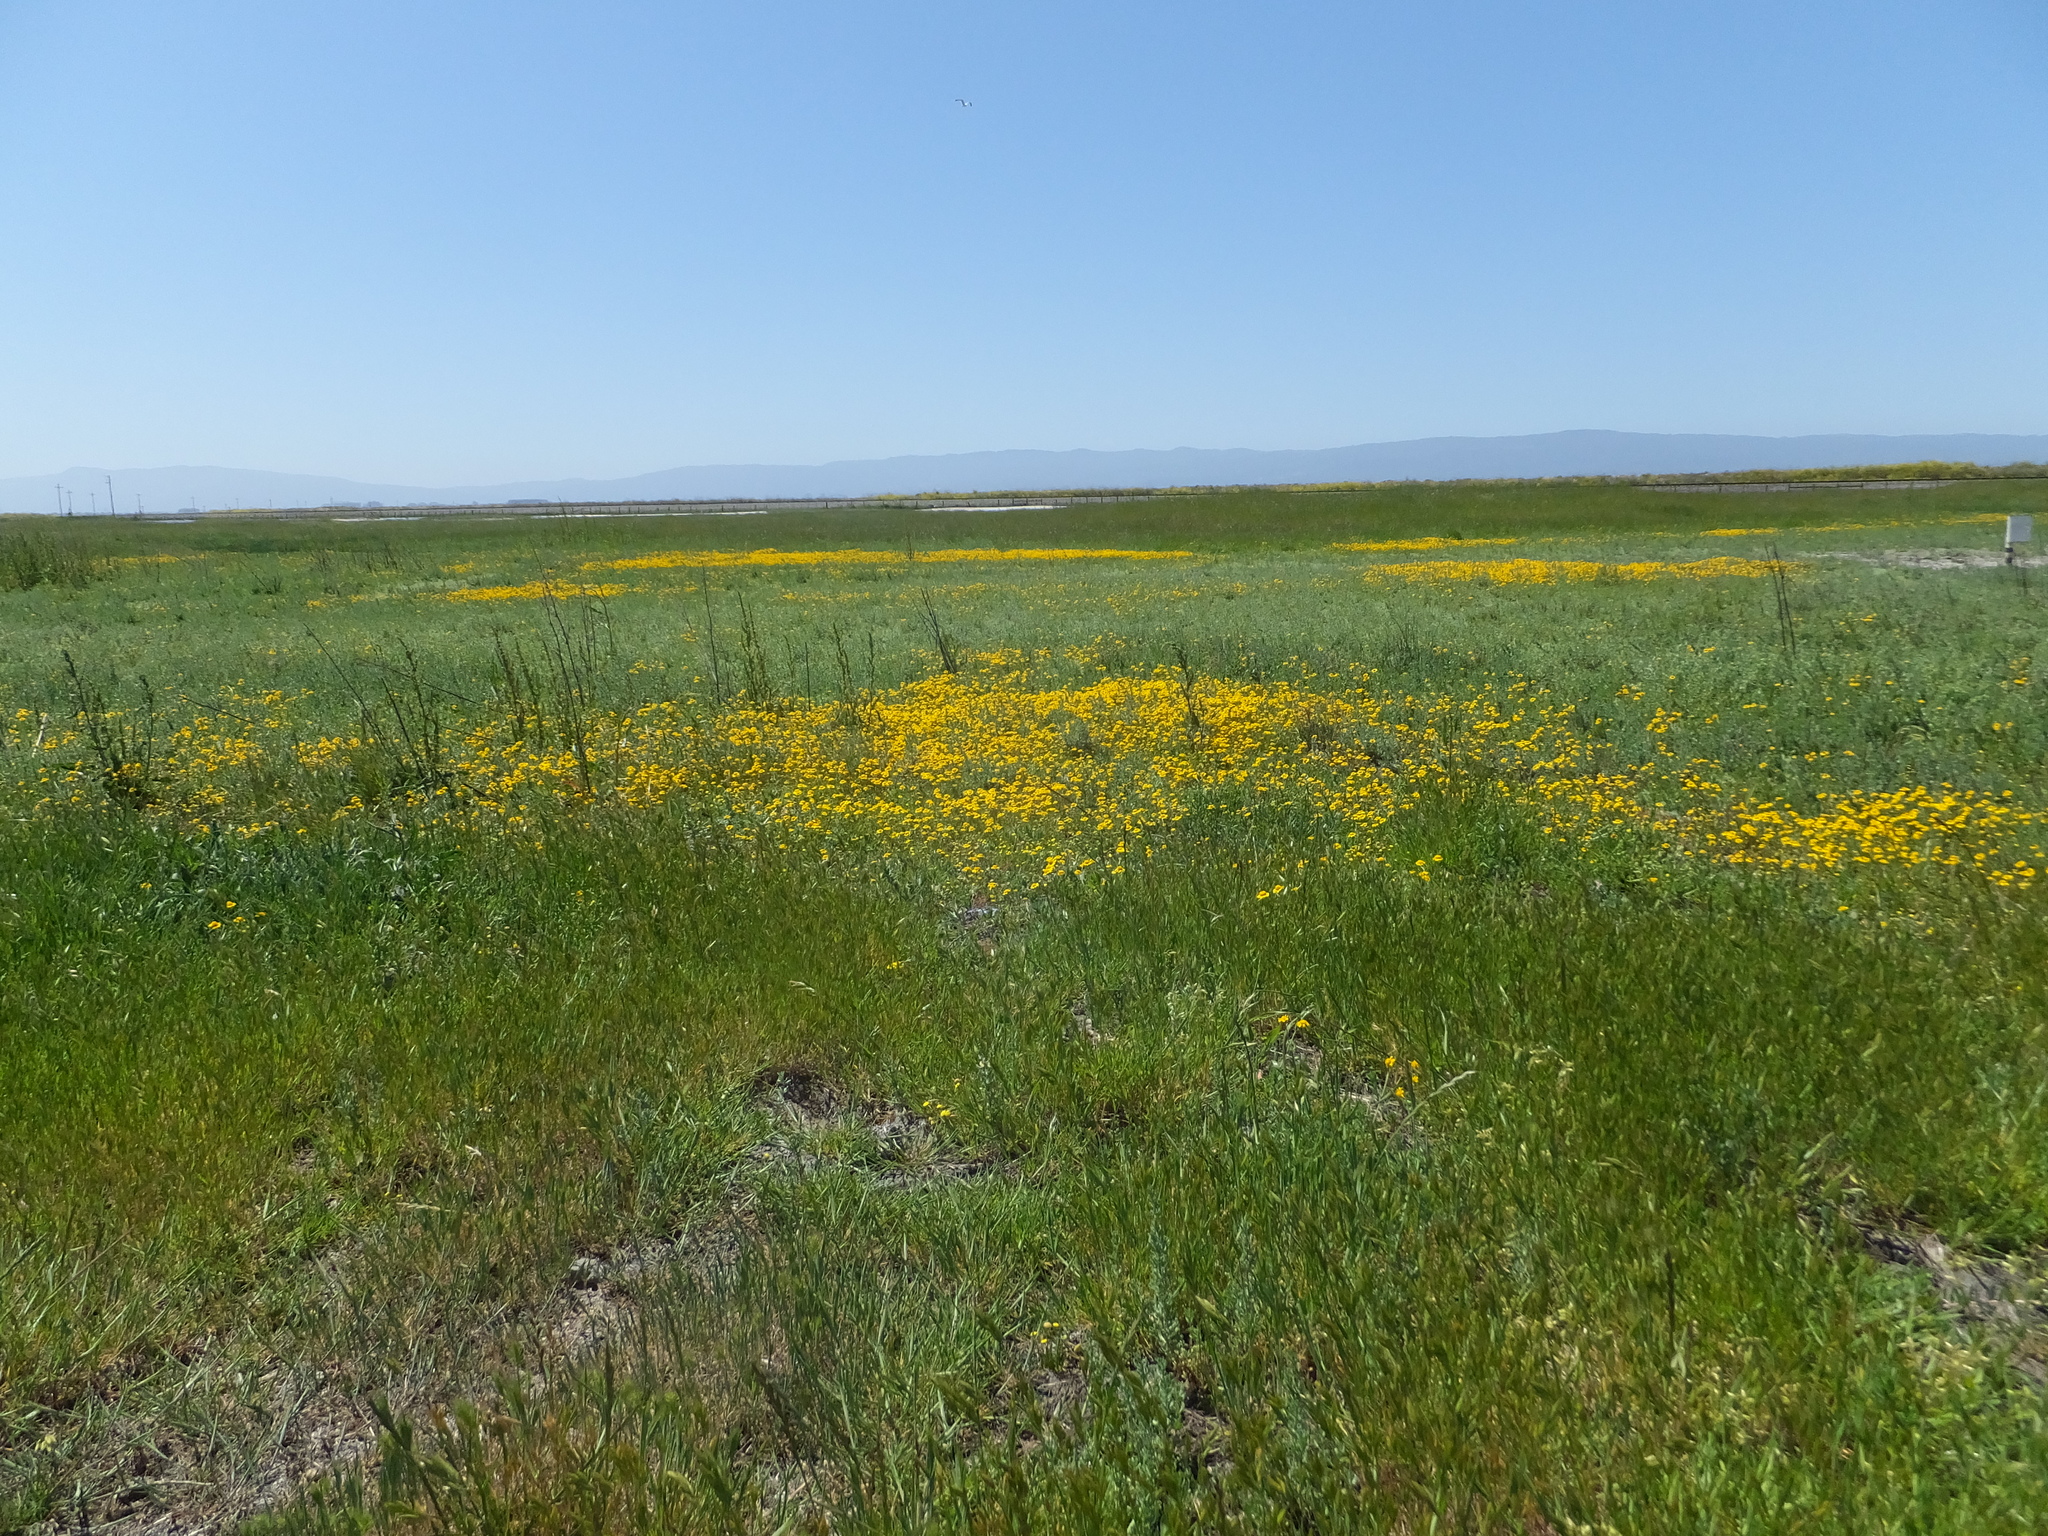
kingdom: Plantae
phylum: Tracheophyta
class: Magnoliopsida
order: Asterales
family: Asteraceae
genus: Lasthenia
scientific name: Lasthenia conjugens
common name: Contra costa goldfields
